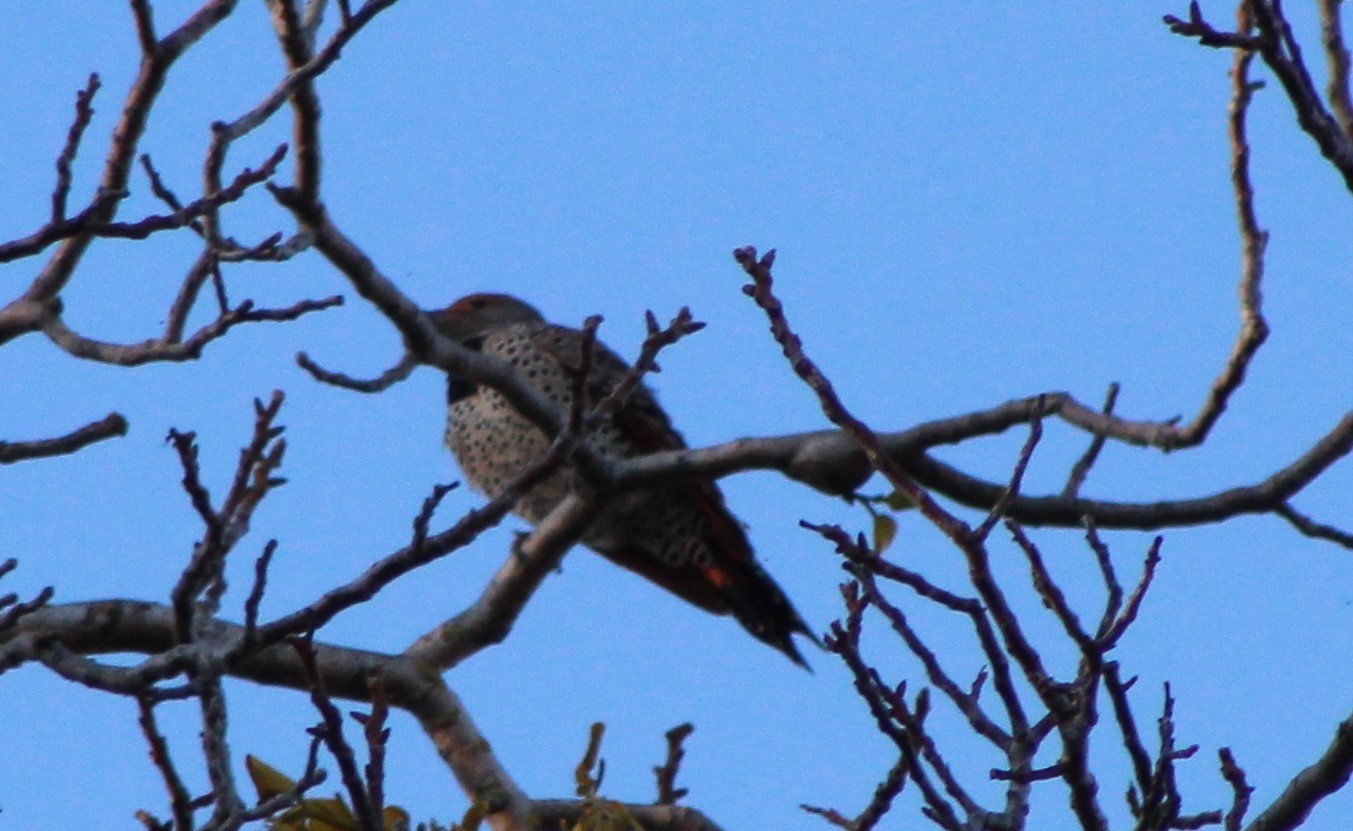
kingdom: Animalia
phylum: Chordata
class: Aves
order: Piciformes
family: Picidae
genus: Colaptes
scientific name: Colaptes auratus
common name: Northern flicker
